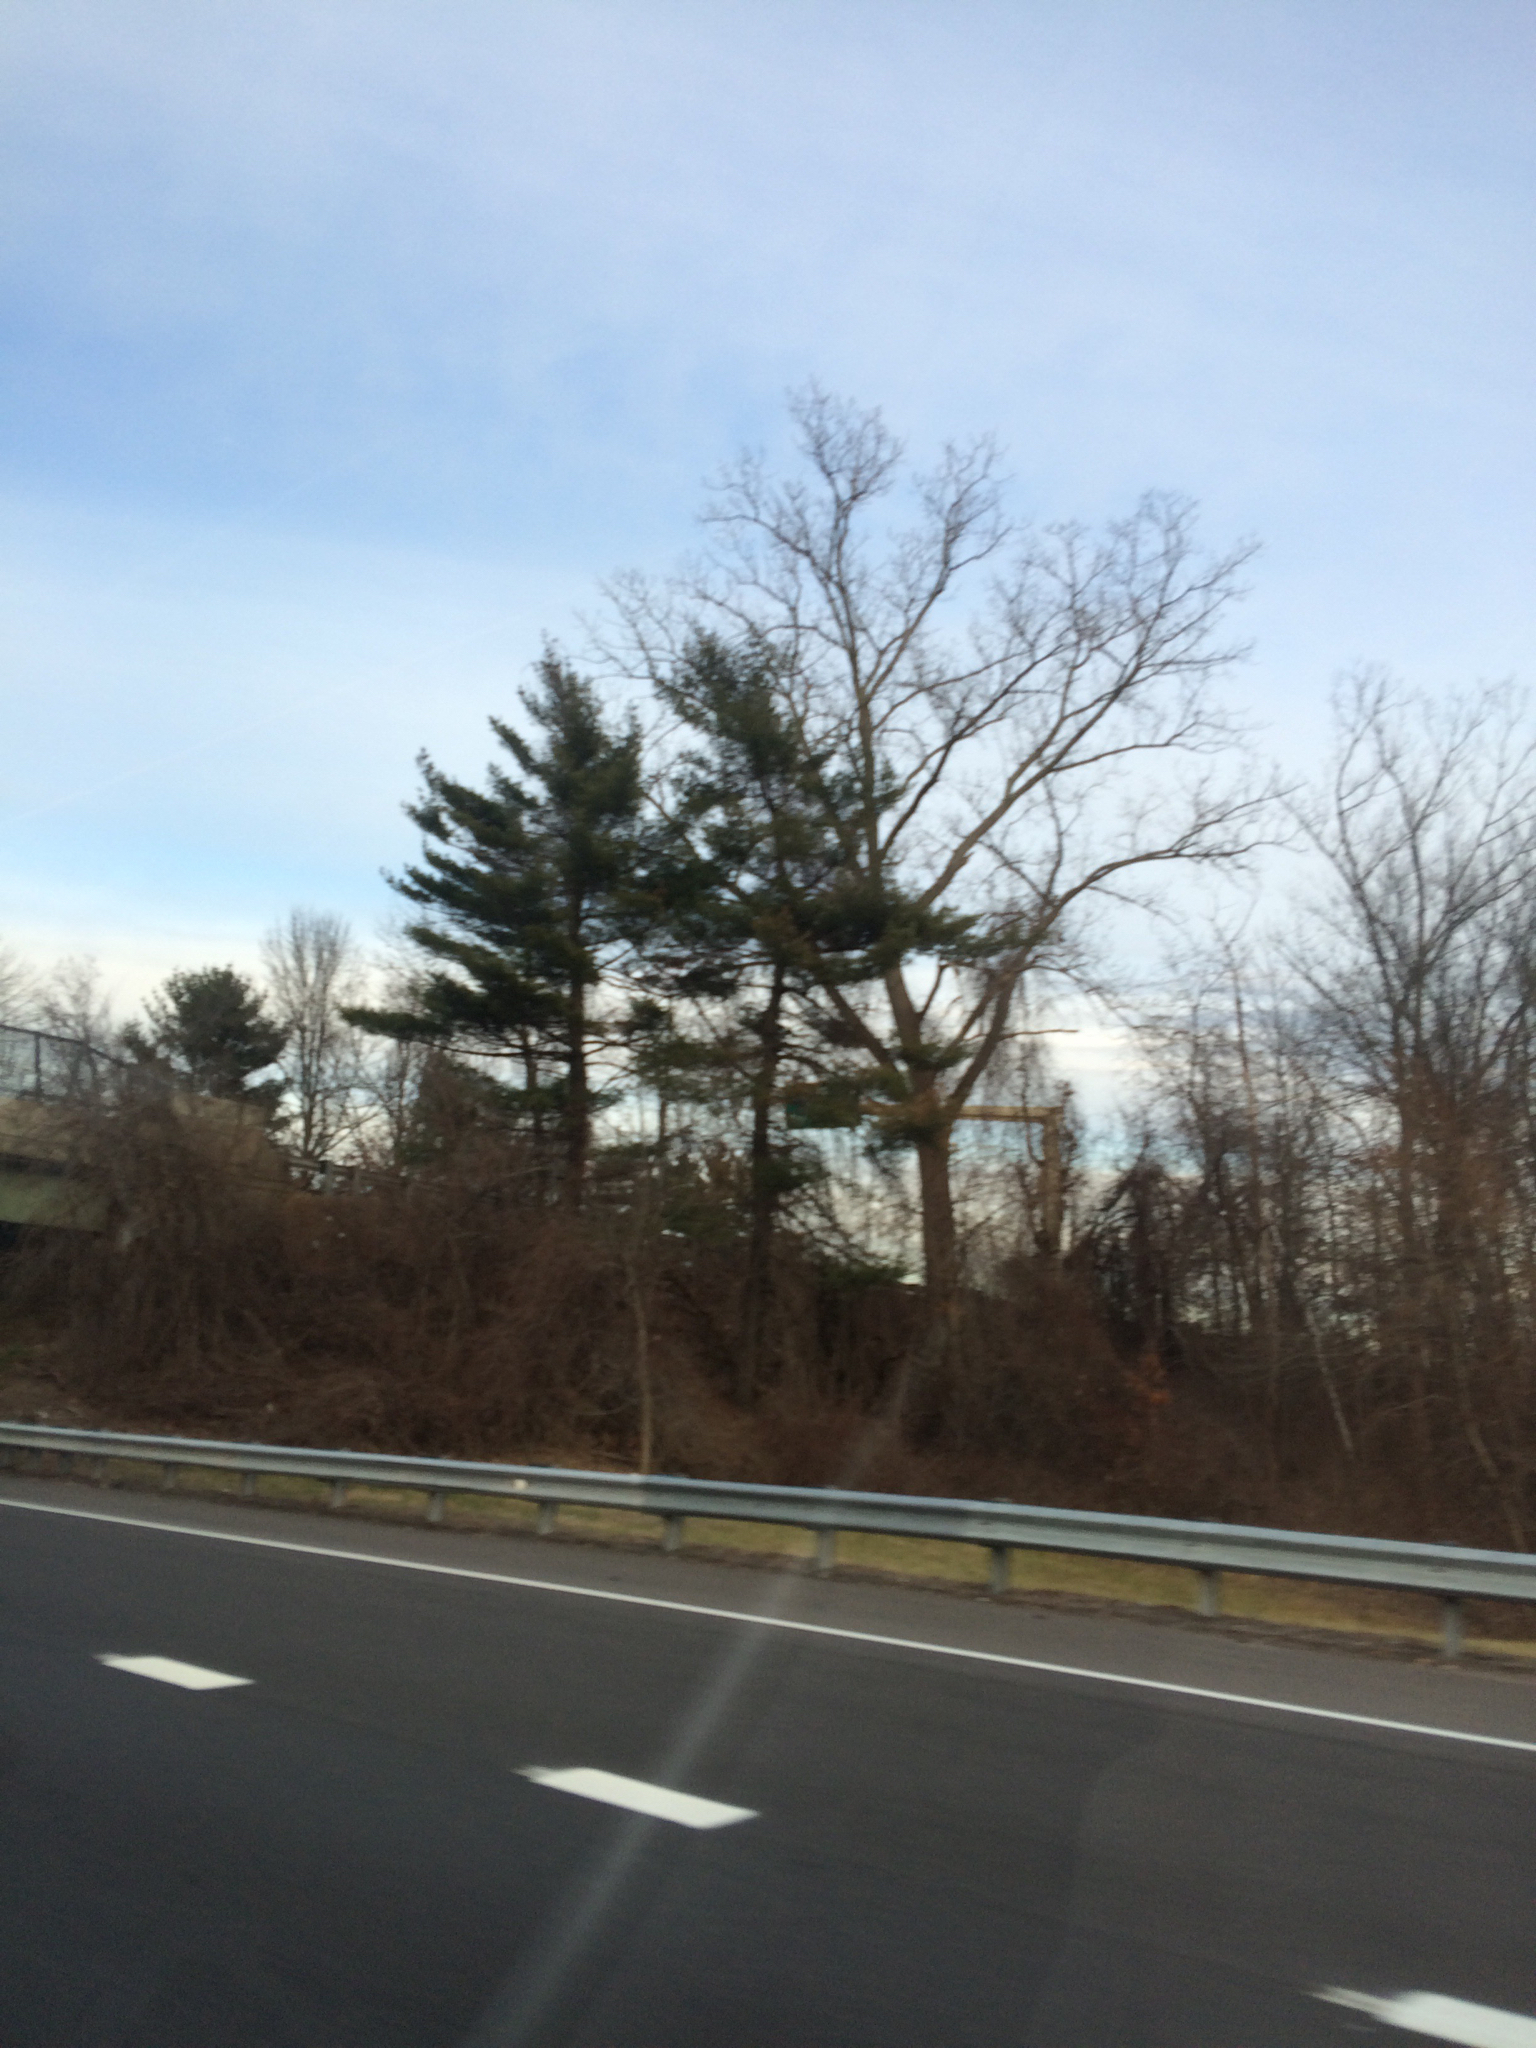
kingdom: Plantae
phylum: Tracheophyta
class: Pinopsida
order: Pinales
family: Pinaceae
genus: Pinus
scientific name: Pinus strobus
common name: Weymouth pine
